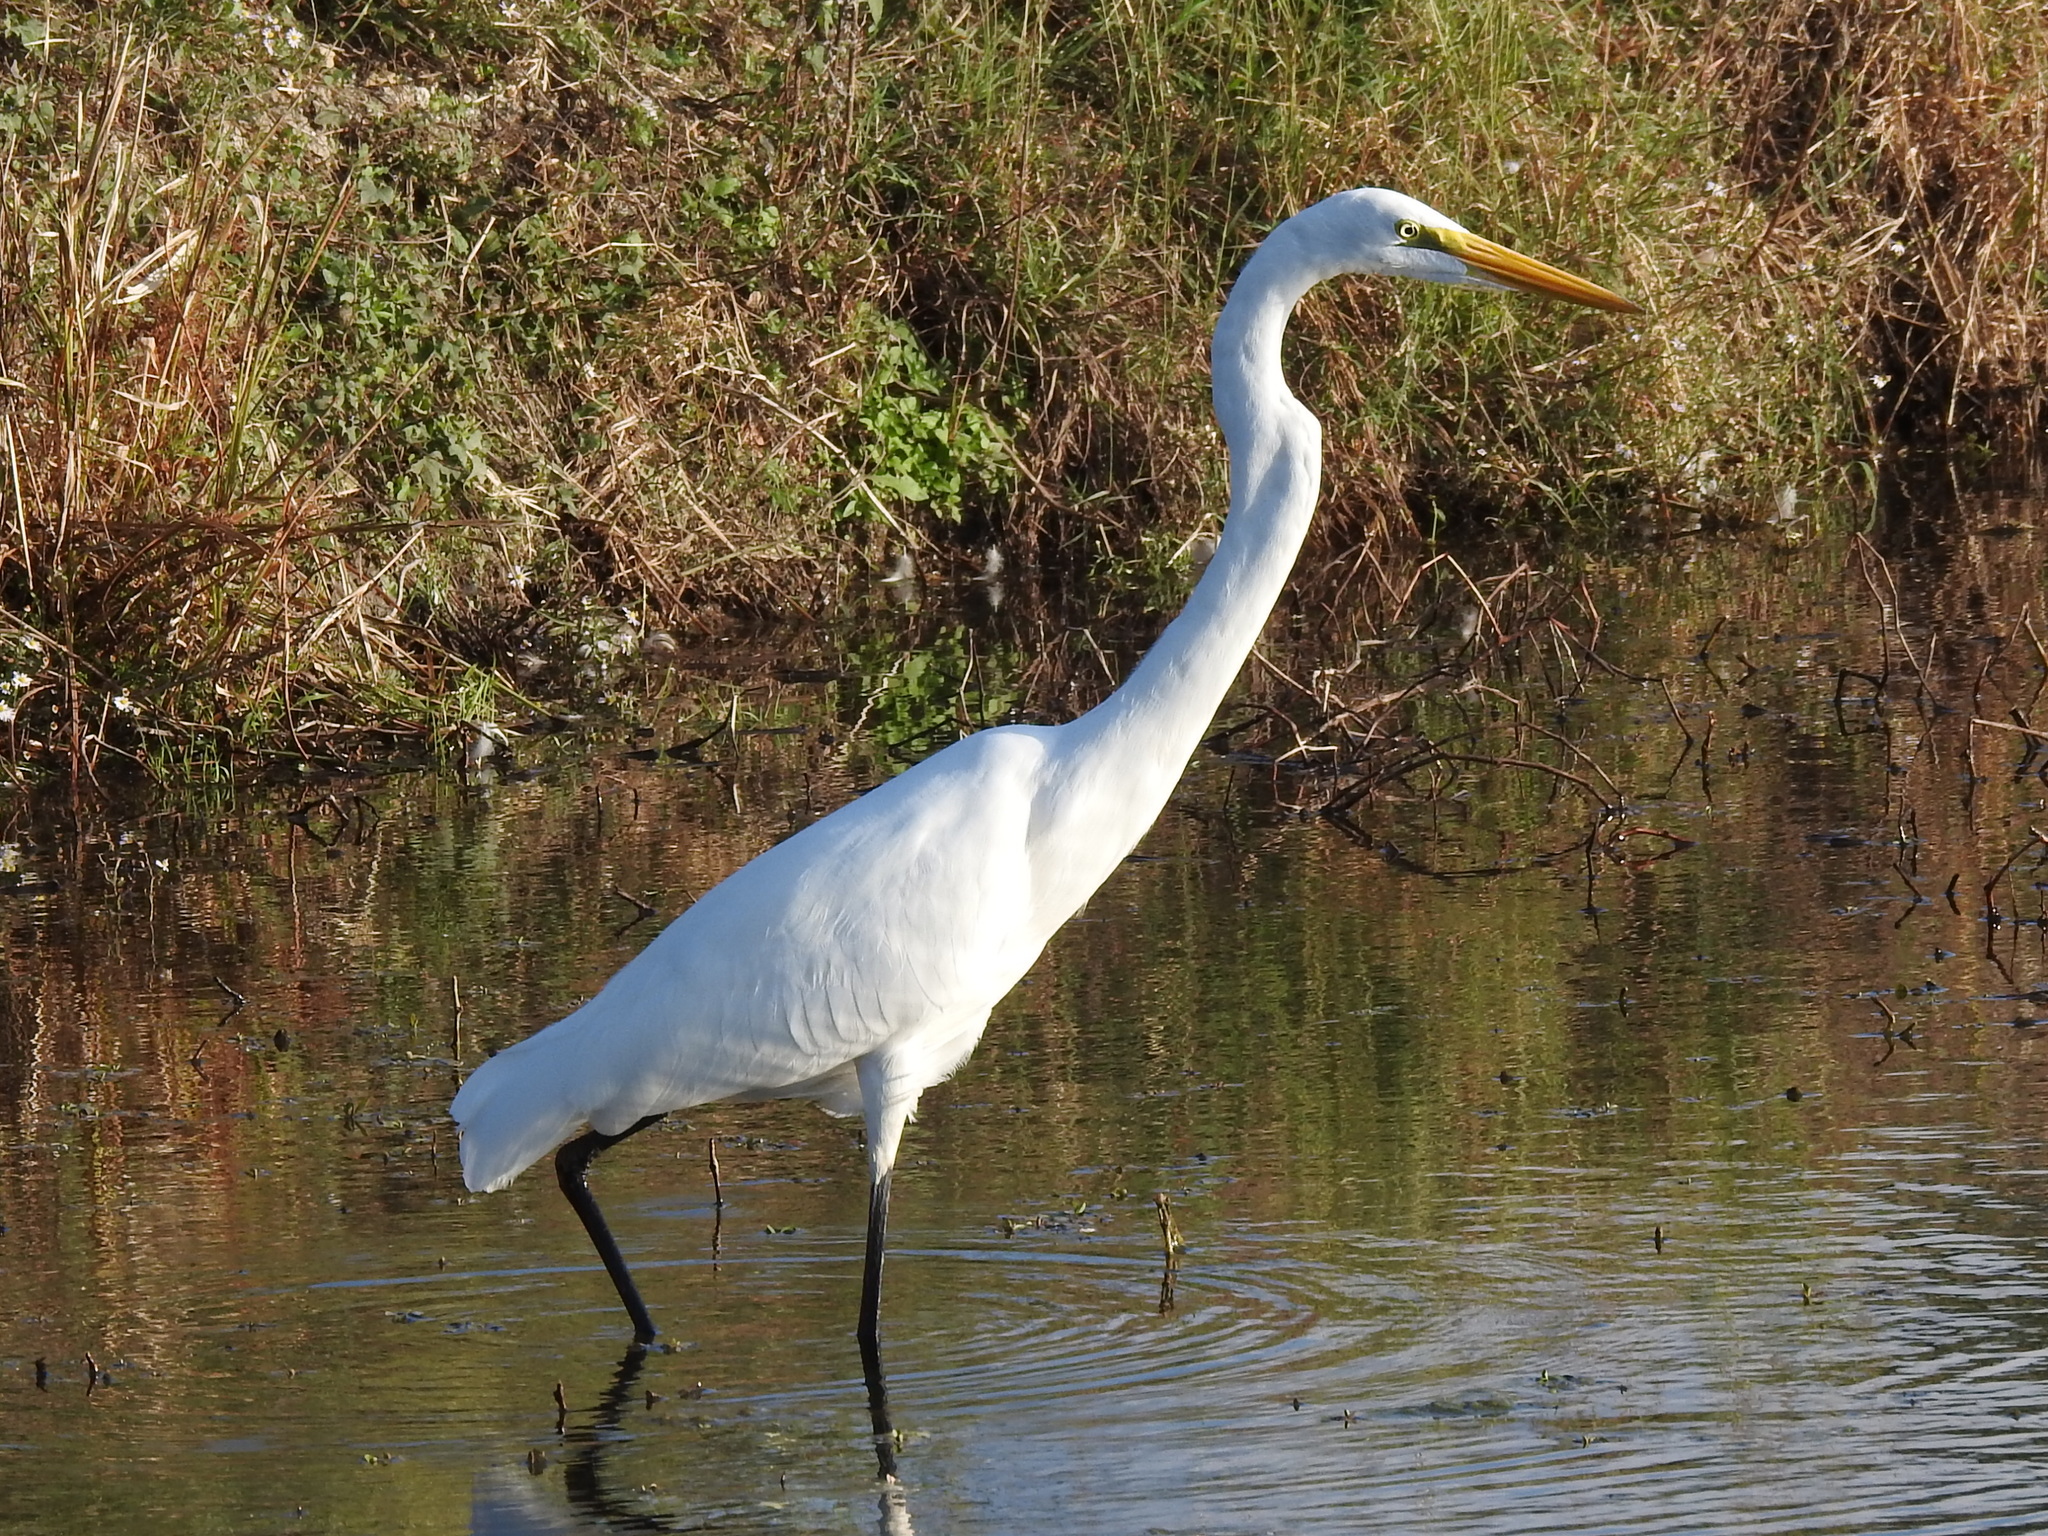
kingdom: Animalia
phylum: Chordata
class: Aves
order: Pelecaniformes
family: Ardeidae
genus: Ardea
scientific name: Ardea alba
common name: Great egret
